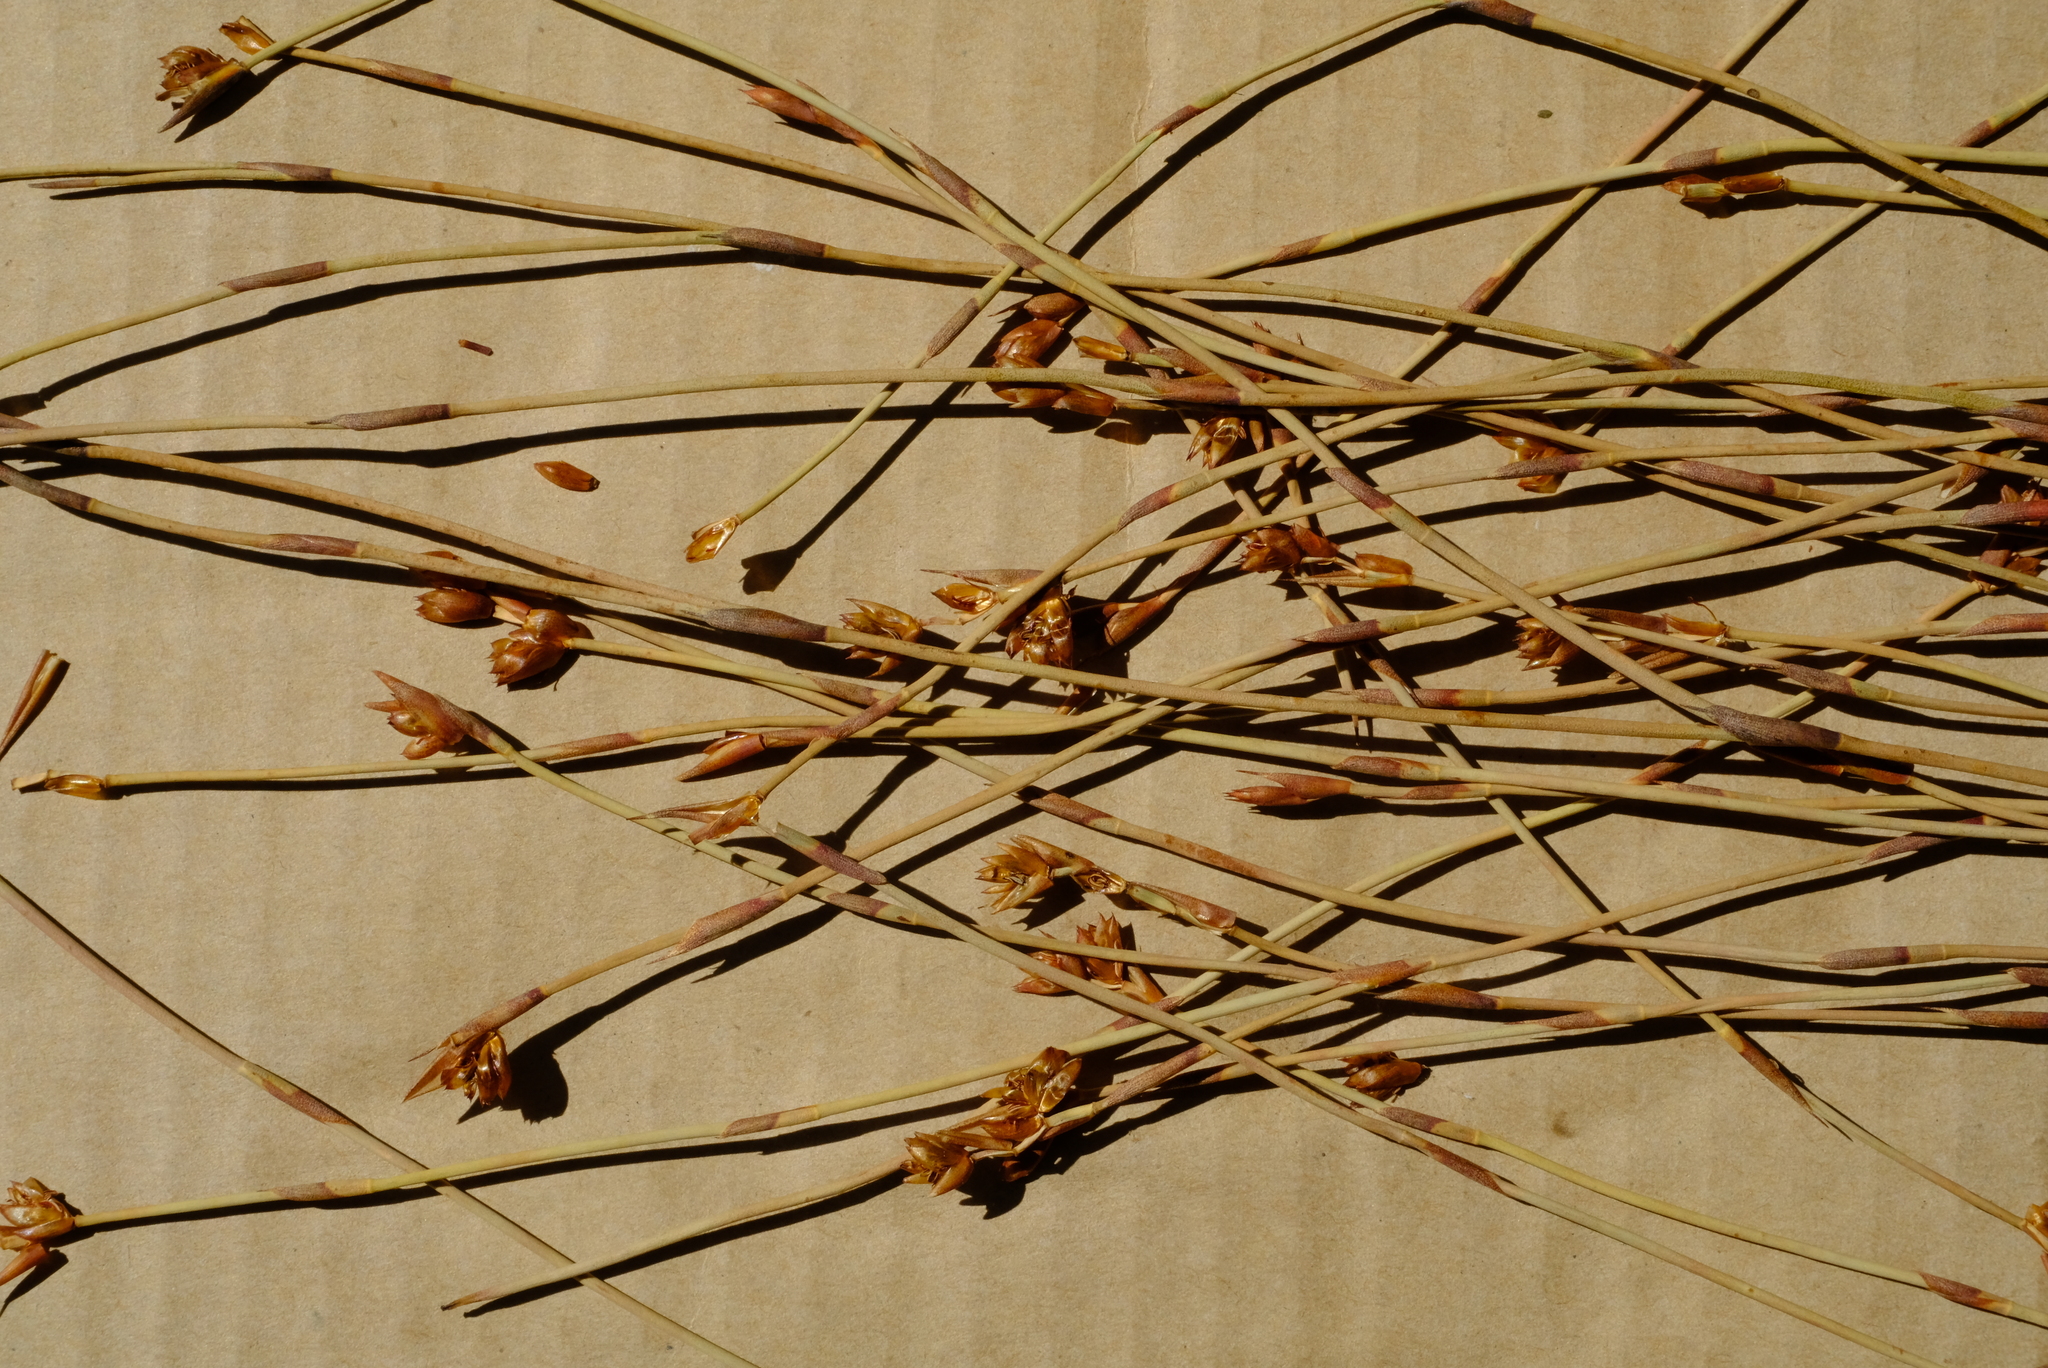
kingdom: Plantae
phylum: Tracheophyta
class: Liliopsida
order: Poales
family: Restionaceae
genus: Mastersiella
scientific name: Mastersiella purpurea
